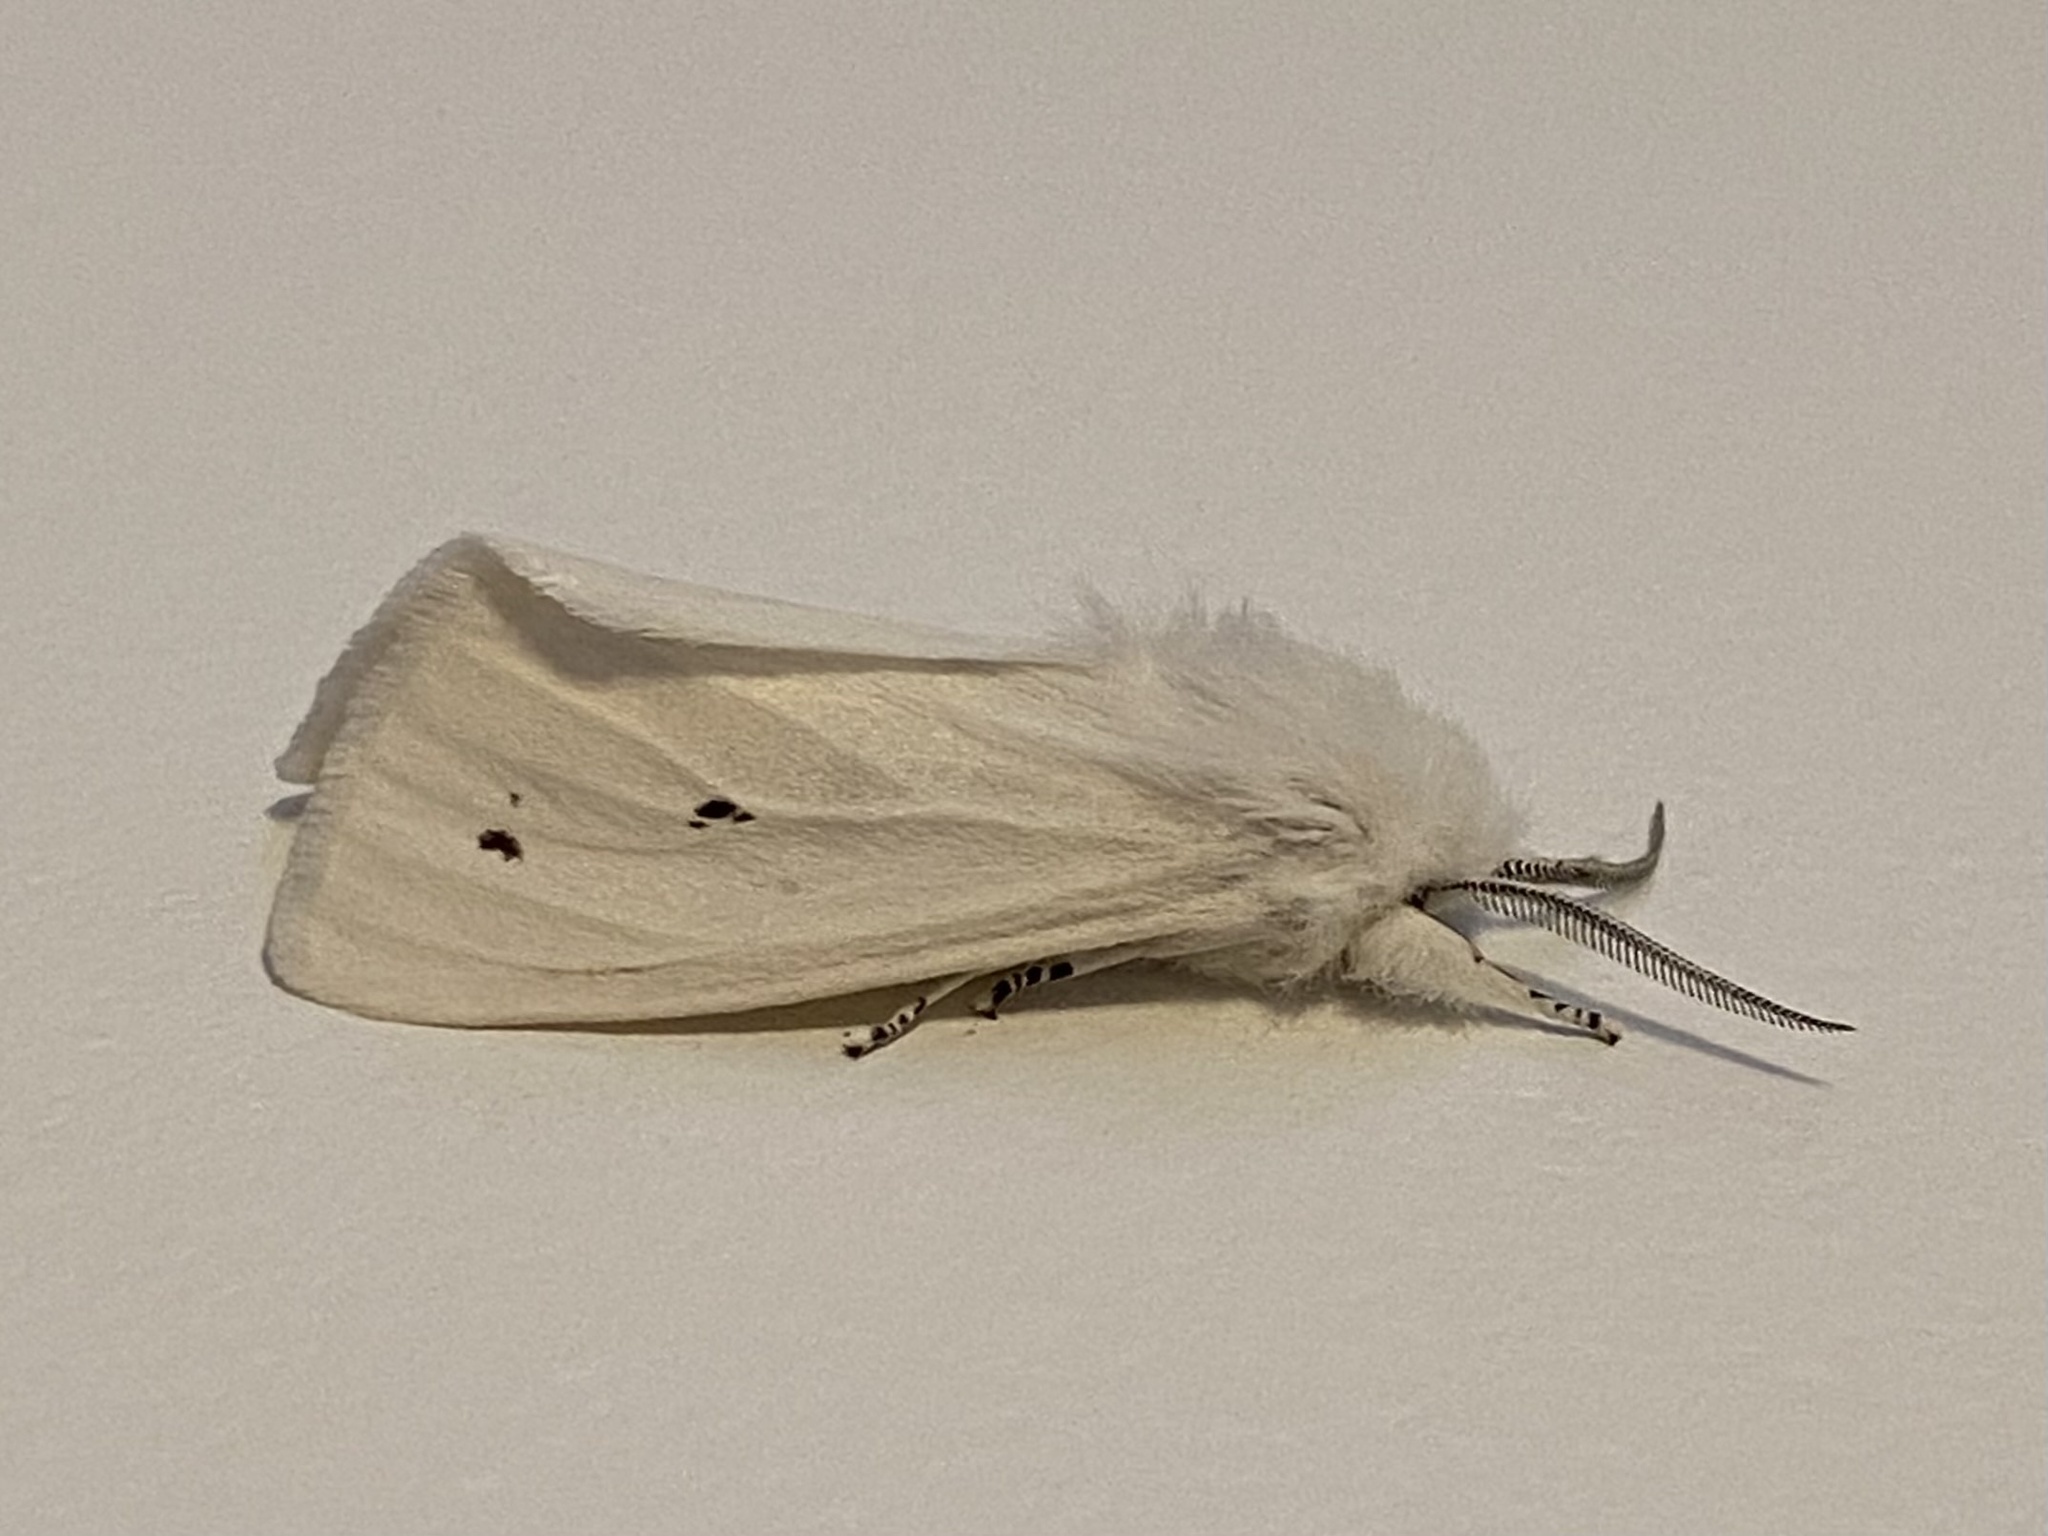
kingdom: Animalia
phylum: Arthropoda
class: Insecta
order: Lepidoptera
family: Erebidae
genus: Spilosoma
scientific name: Spilosoma virginica
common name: Virginia tiger moth
